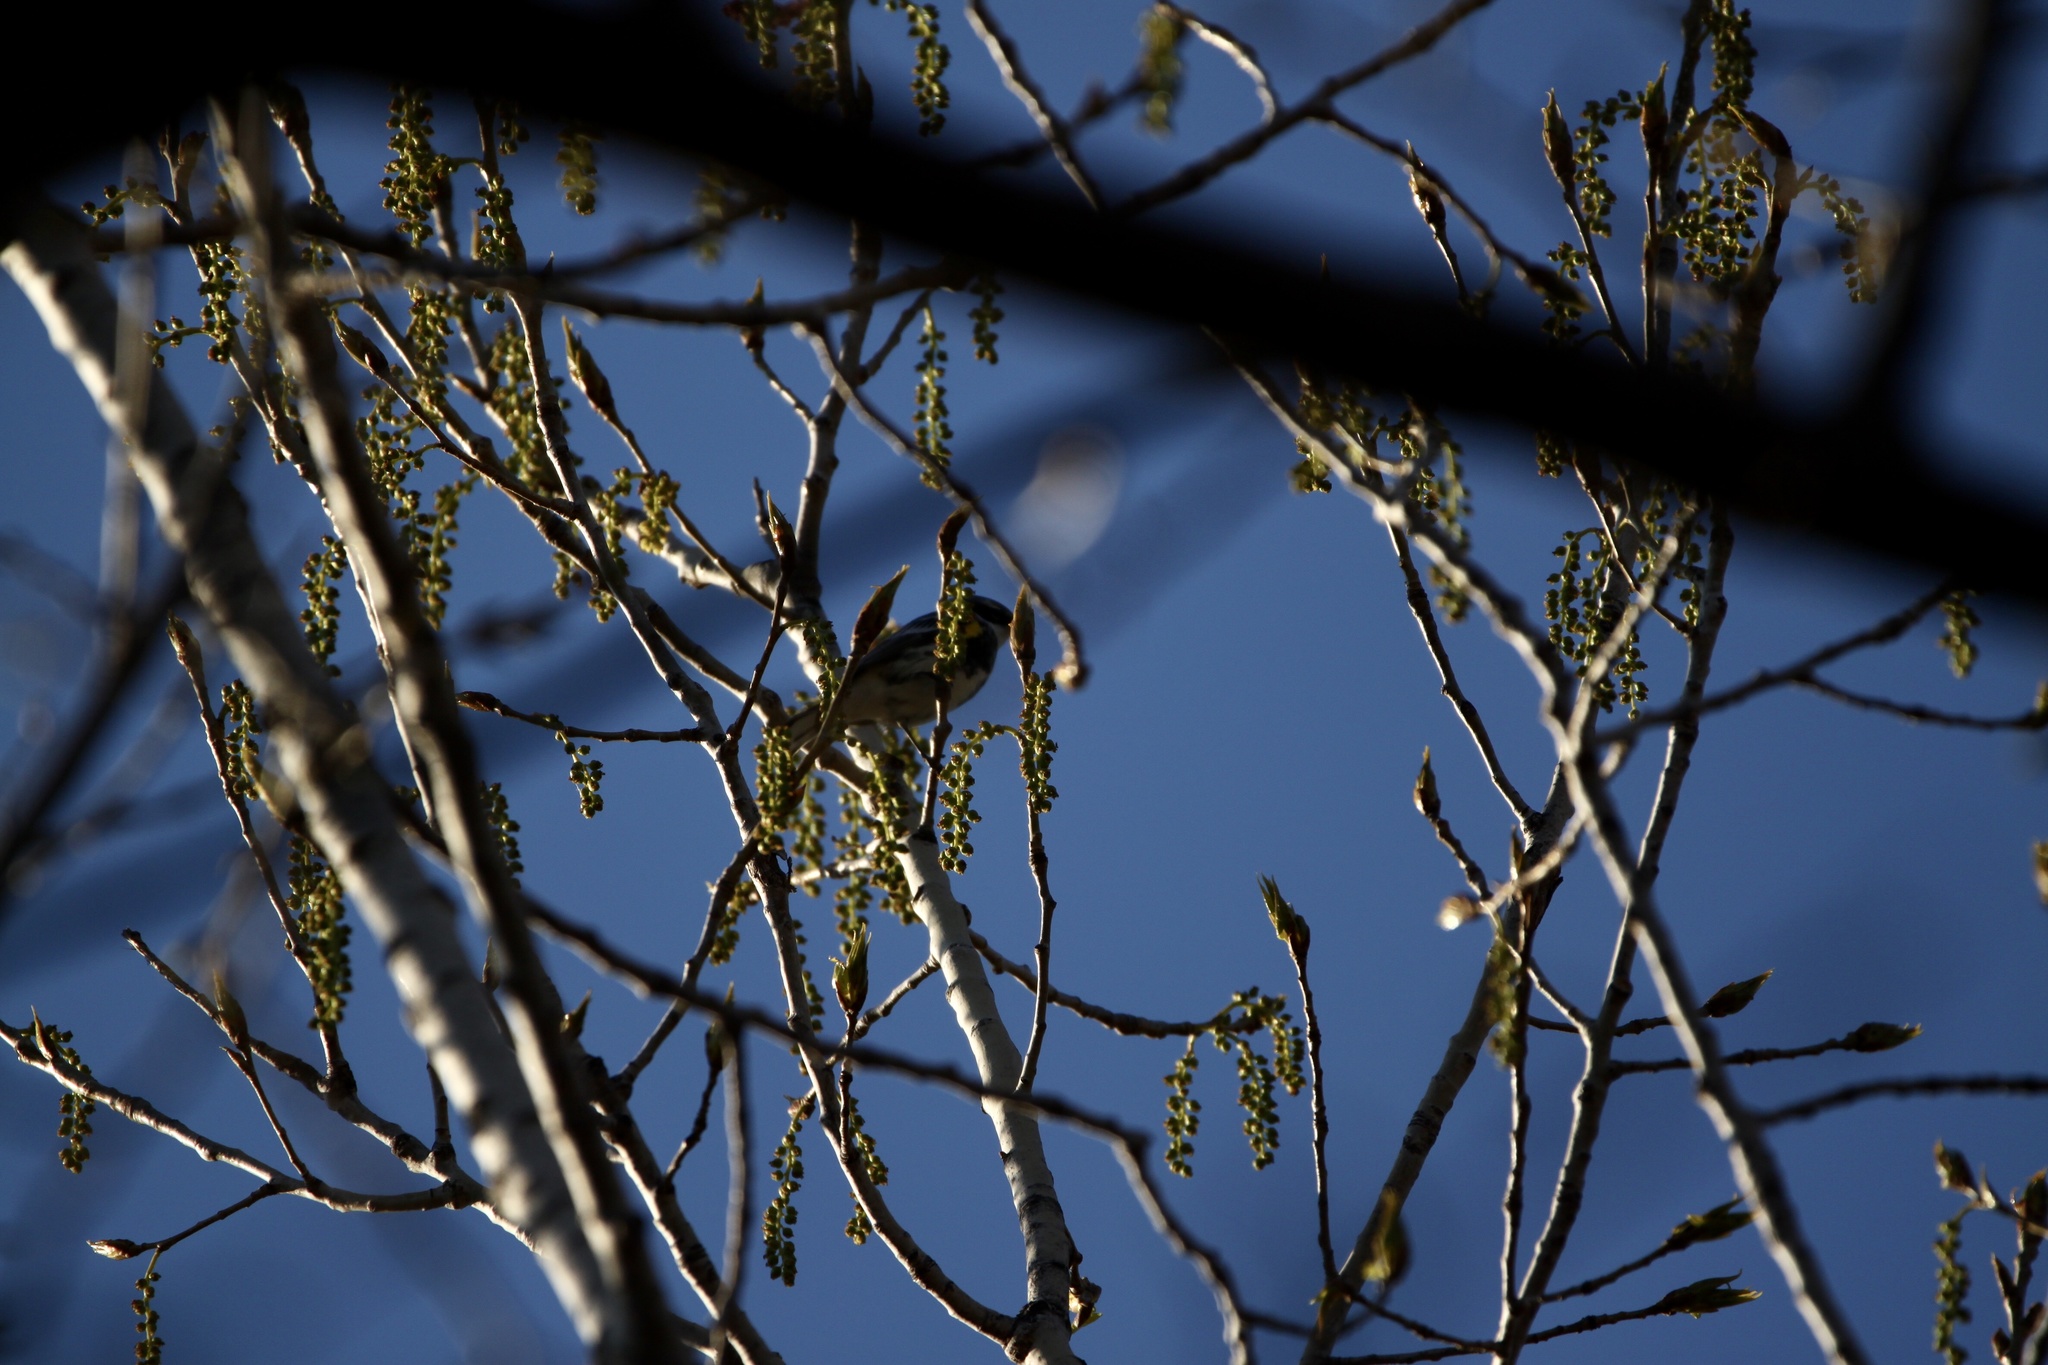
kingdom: Animalia
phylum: Chordata
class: Aves
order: Passeriformes
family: Parulidae
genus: Setophaga
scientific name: Setophaga coronata
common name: Myrtle warbler
